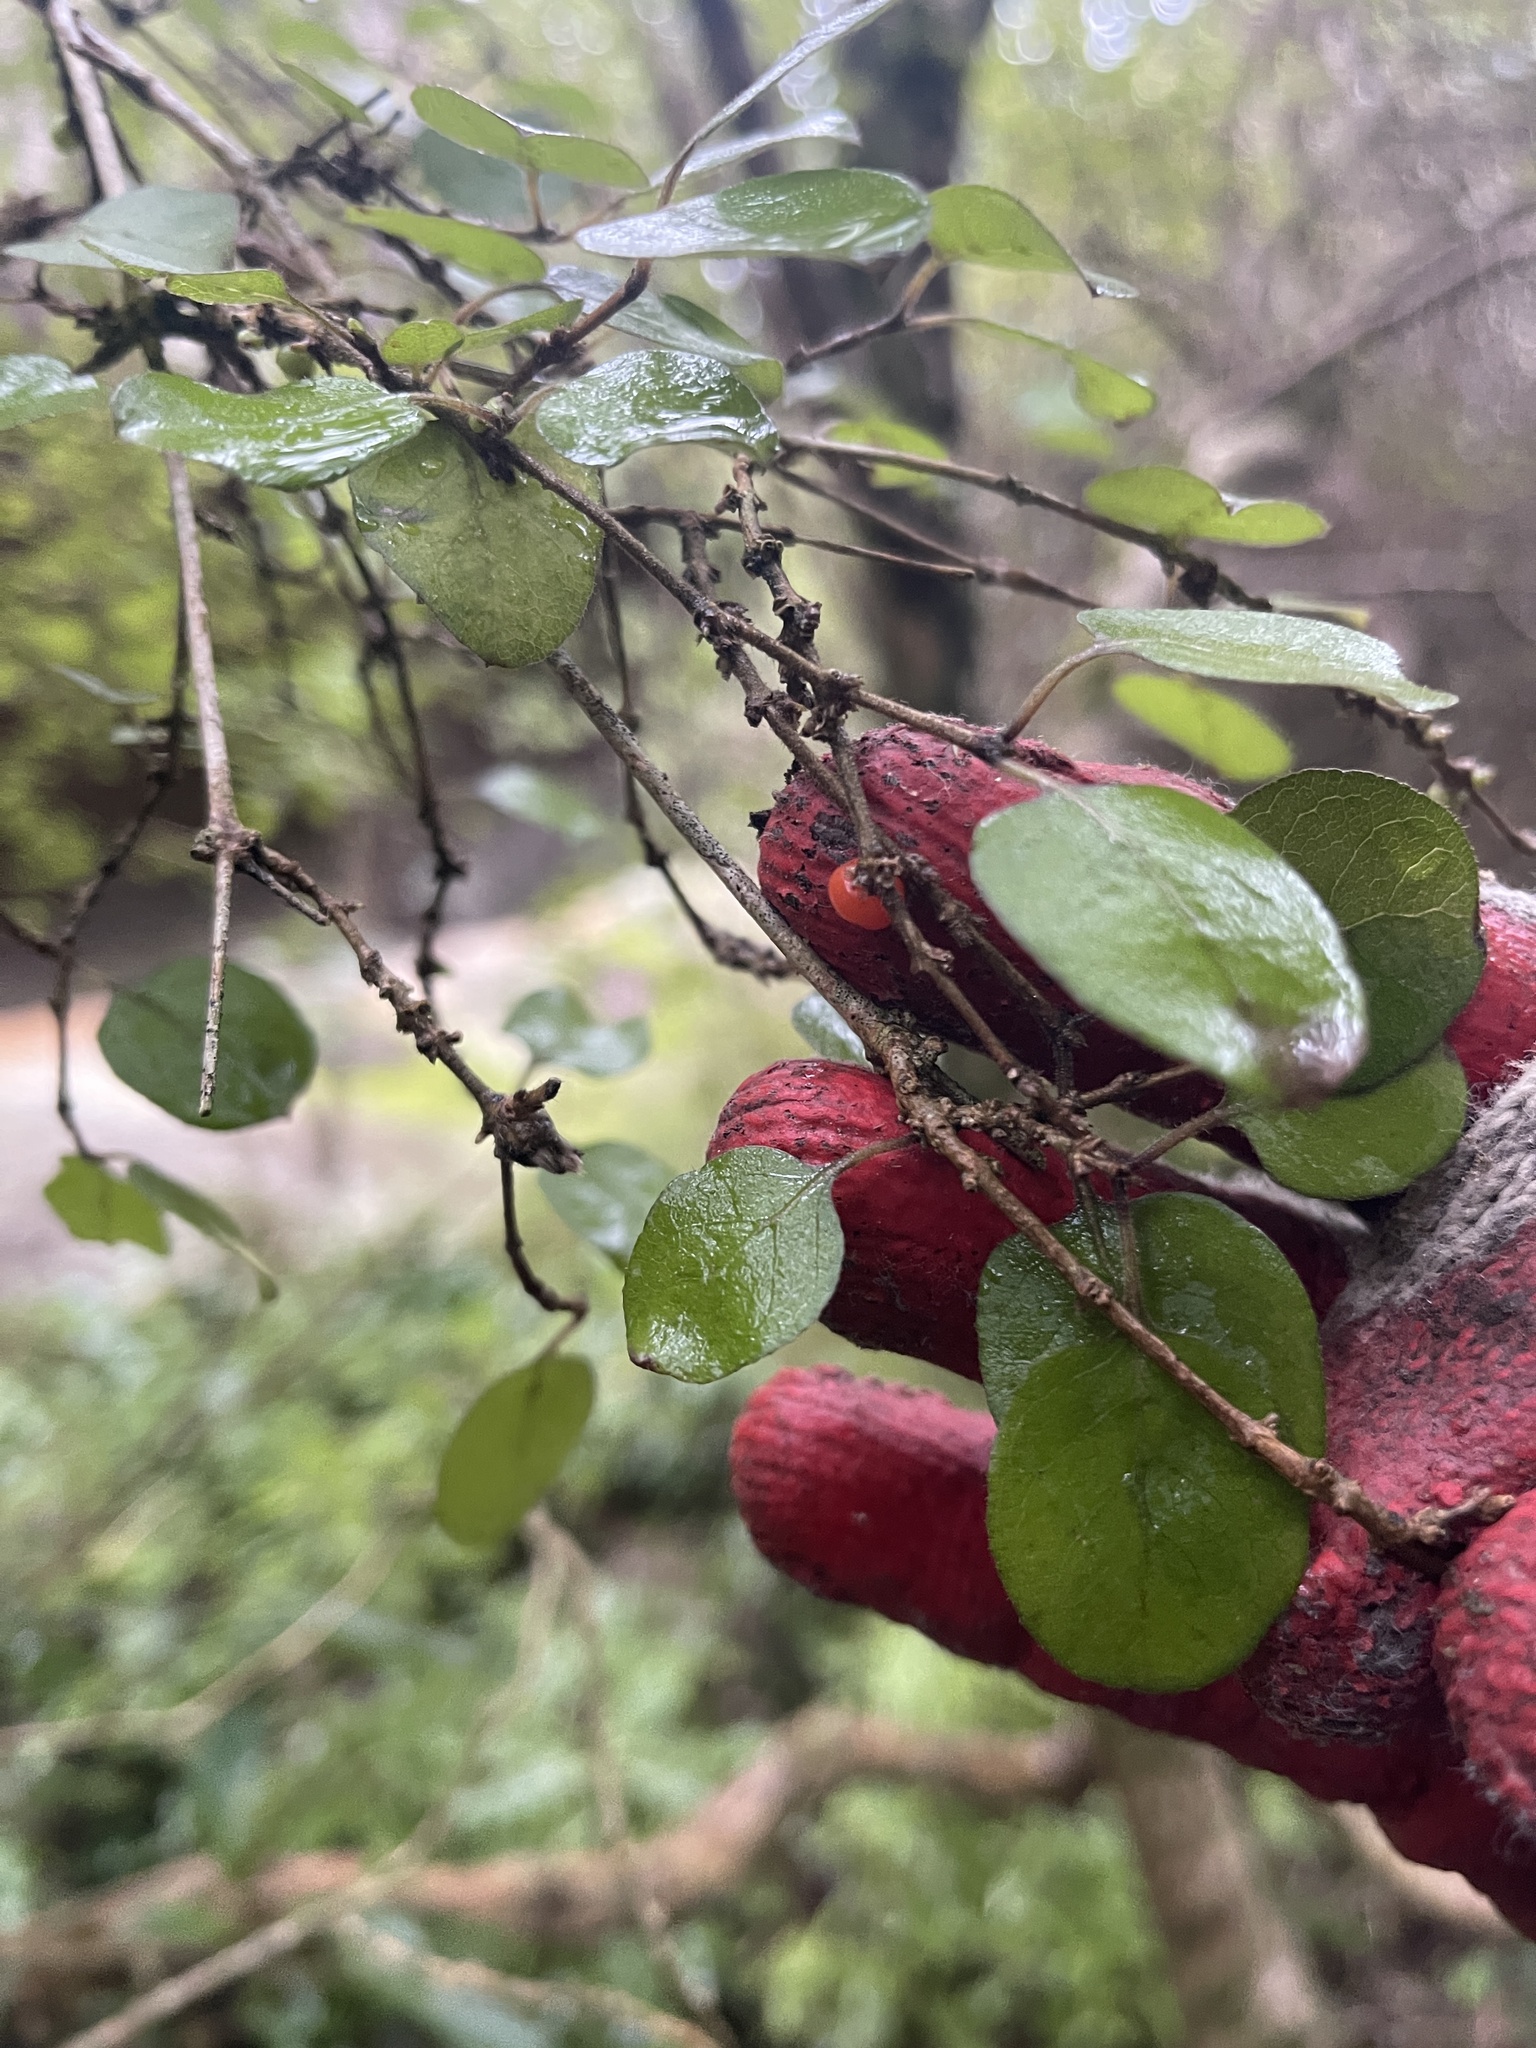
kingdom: Plantae
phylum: Tracheophyta
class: Magnoliopsida
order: Gentianales
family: Rubiaceae
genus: Coprosma
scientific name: Coprosma rotundifolia
